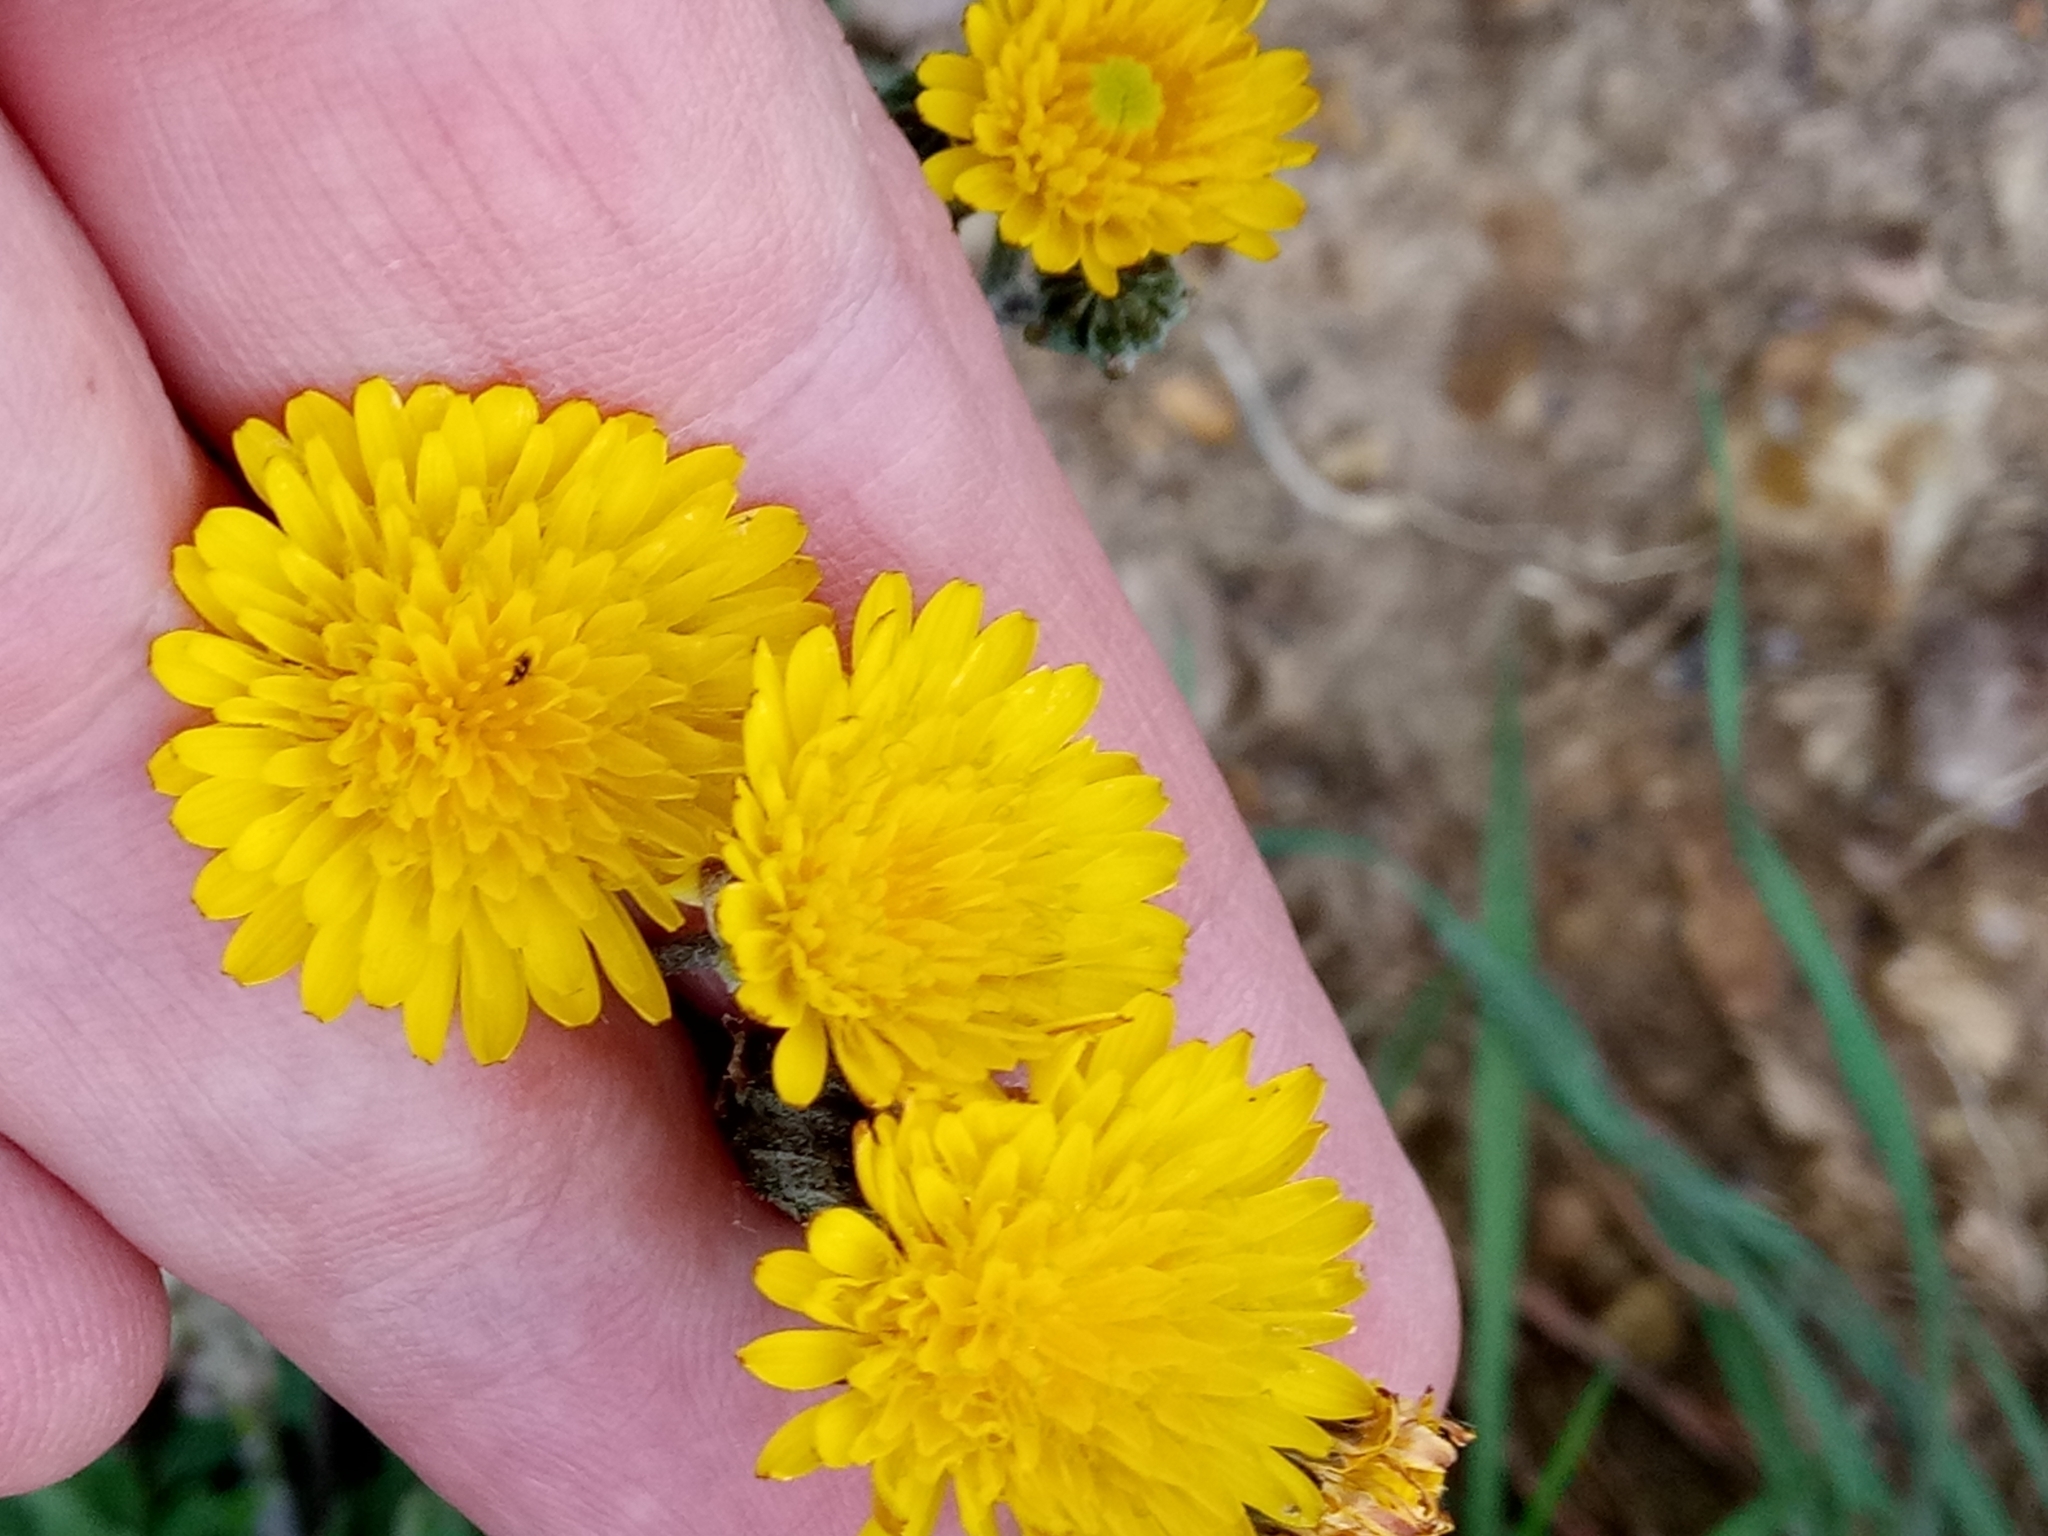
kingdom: Plantae
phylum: Tracheophyta
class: Magnoliopsida
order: Asterales
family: Asteraceae
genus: Crepis
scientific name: Crepis vesicaria
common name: Beaked hawksbeard
